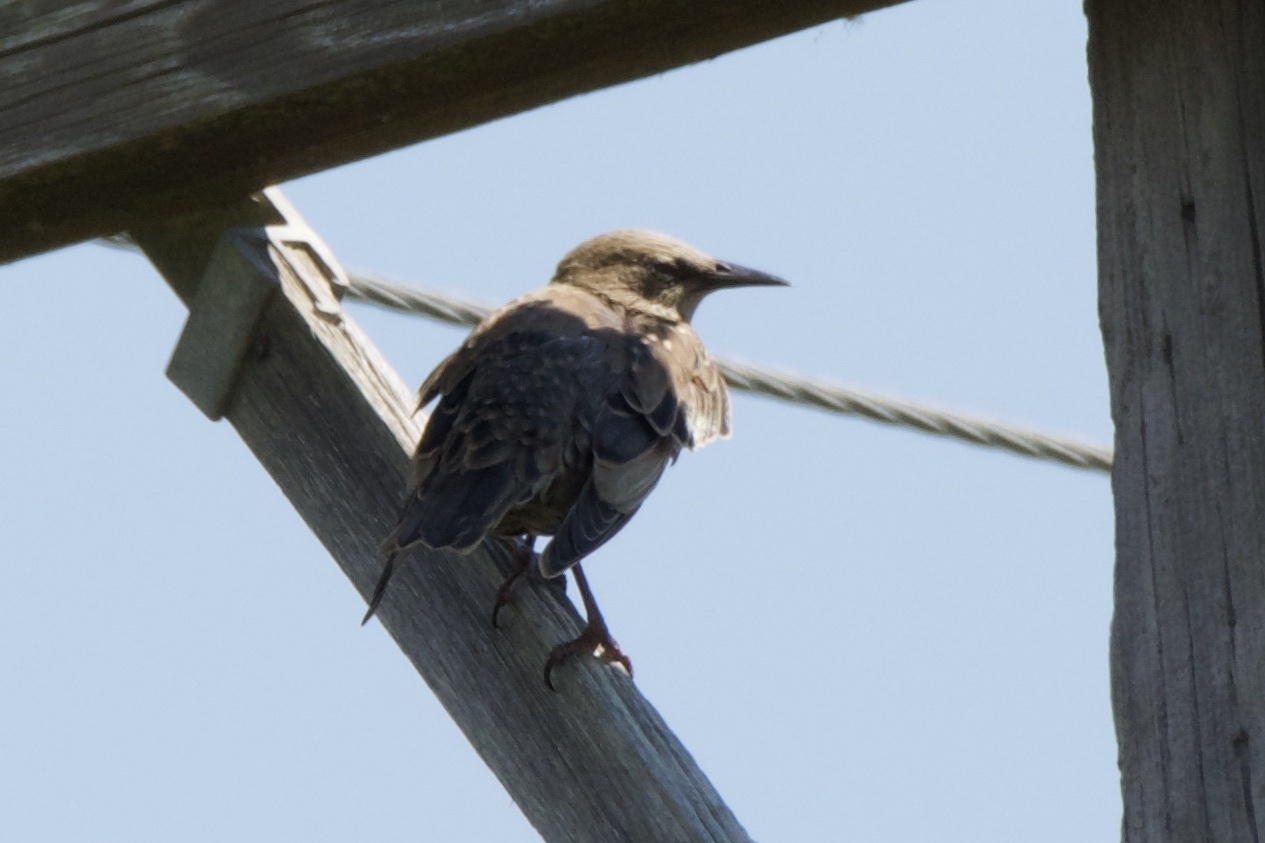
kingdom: Animalia
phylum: Chordata
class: Aves
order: Passeriformes
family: Sturnidae
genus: Sturnus
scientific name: Sturnus vulgaris
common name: Common starling
